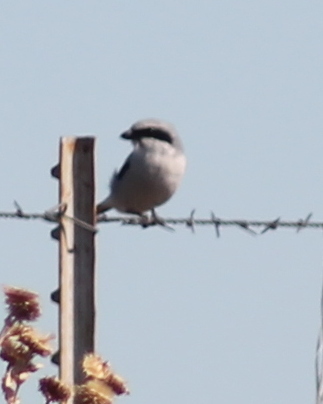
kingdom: Animalia
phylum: Chordata
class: Aves
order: Passeriformes
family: Laniidae
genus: Lanius
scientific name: Lanius ludovicianus
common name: Loggerhead shrike
